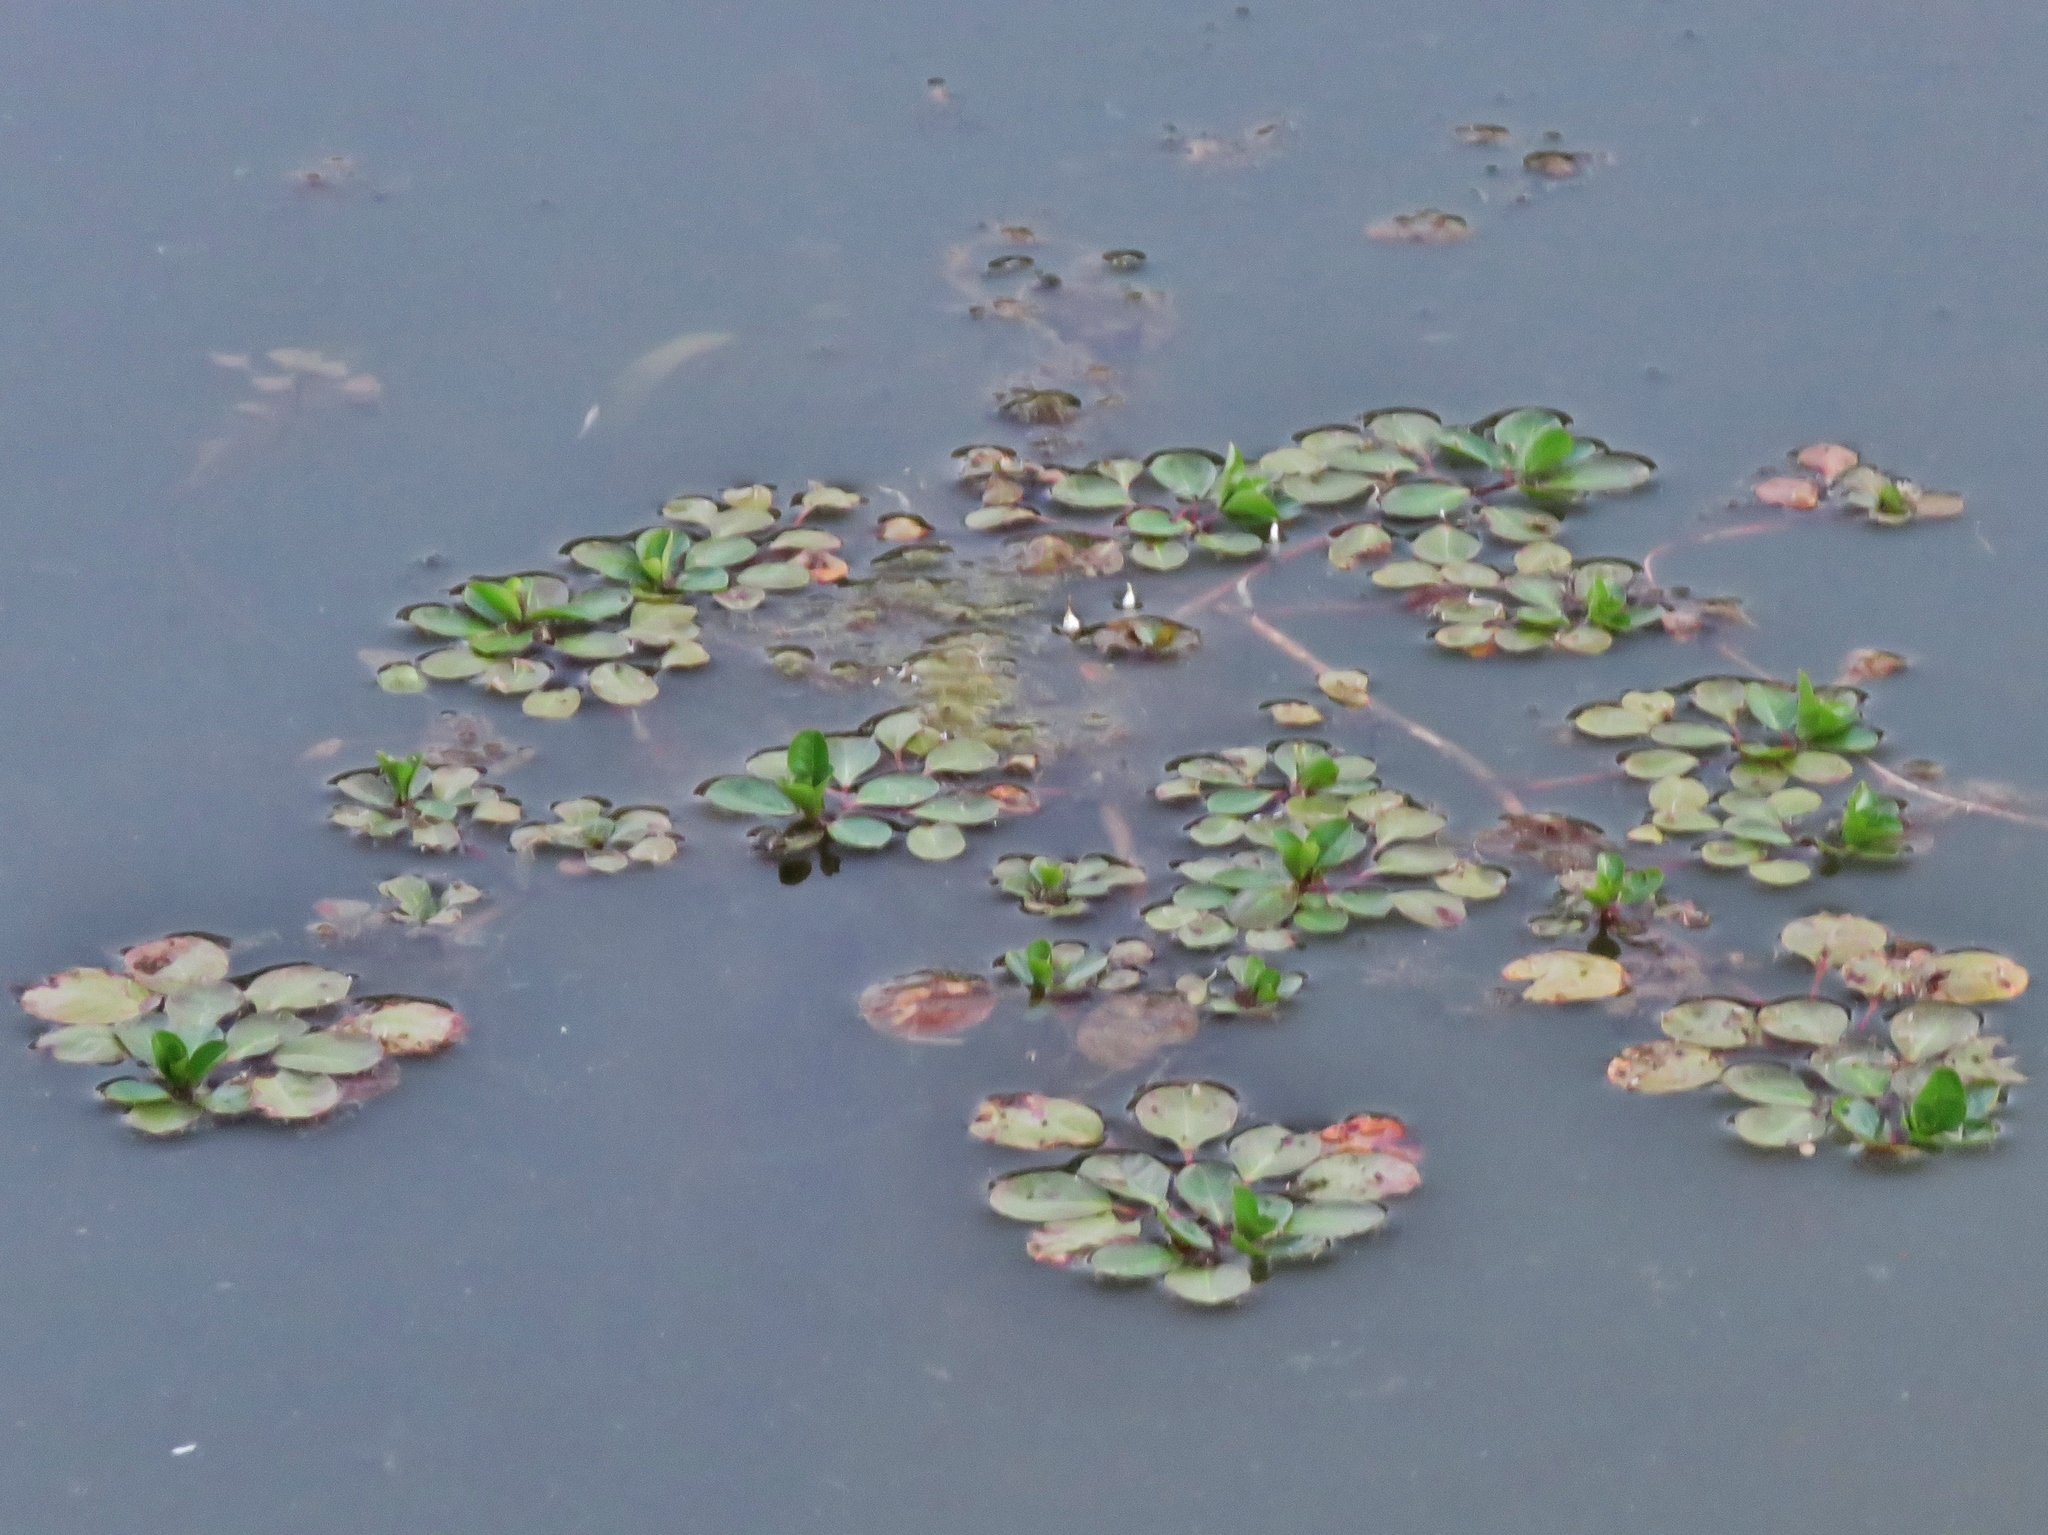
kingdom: Plantae
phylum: Tracheophyta
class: Magnoliopsida
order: Myrtales
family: Onagraceae
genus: Ludwigia
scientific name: Ludwigia peploides
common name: Floating primrose-willow
